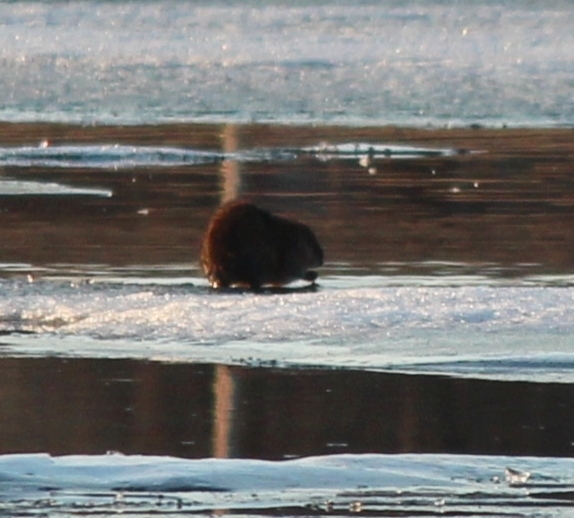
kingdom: Animalia
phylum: Chordata
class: Mammalia
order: Rodentia
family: Cricetidae
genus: Ondatra
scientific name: Ondatra zibethicus
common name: Muskrat
